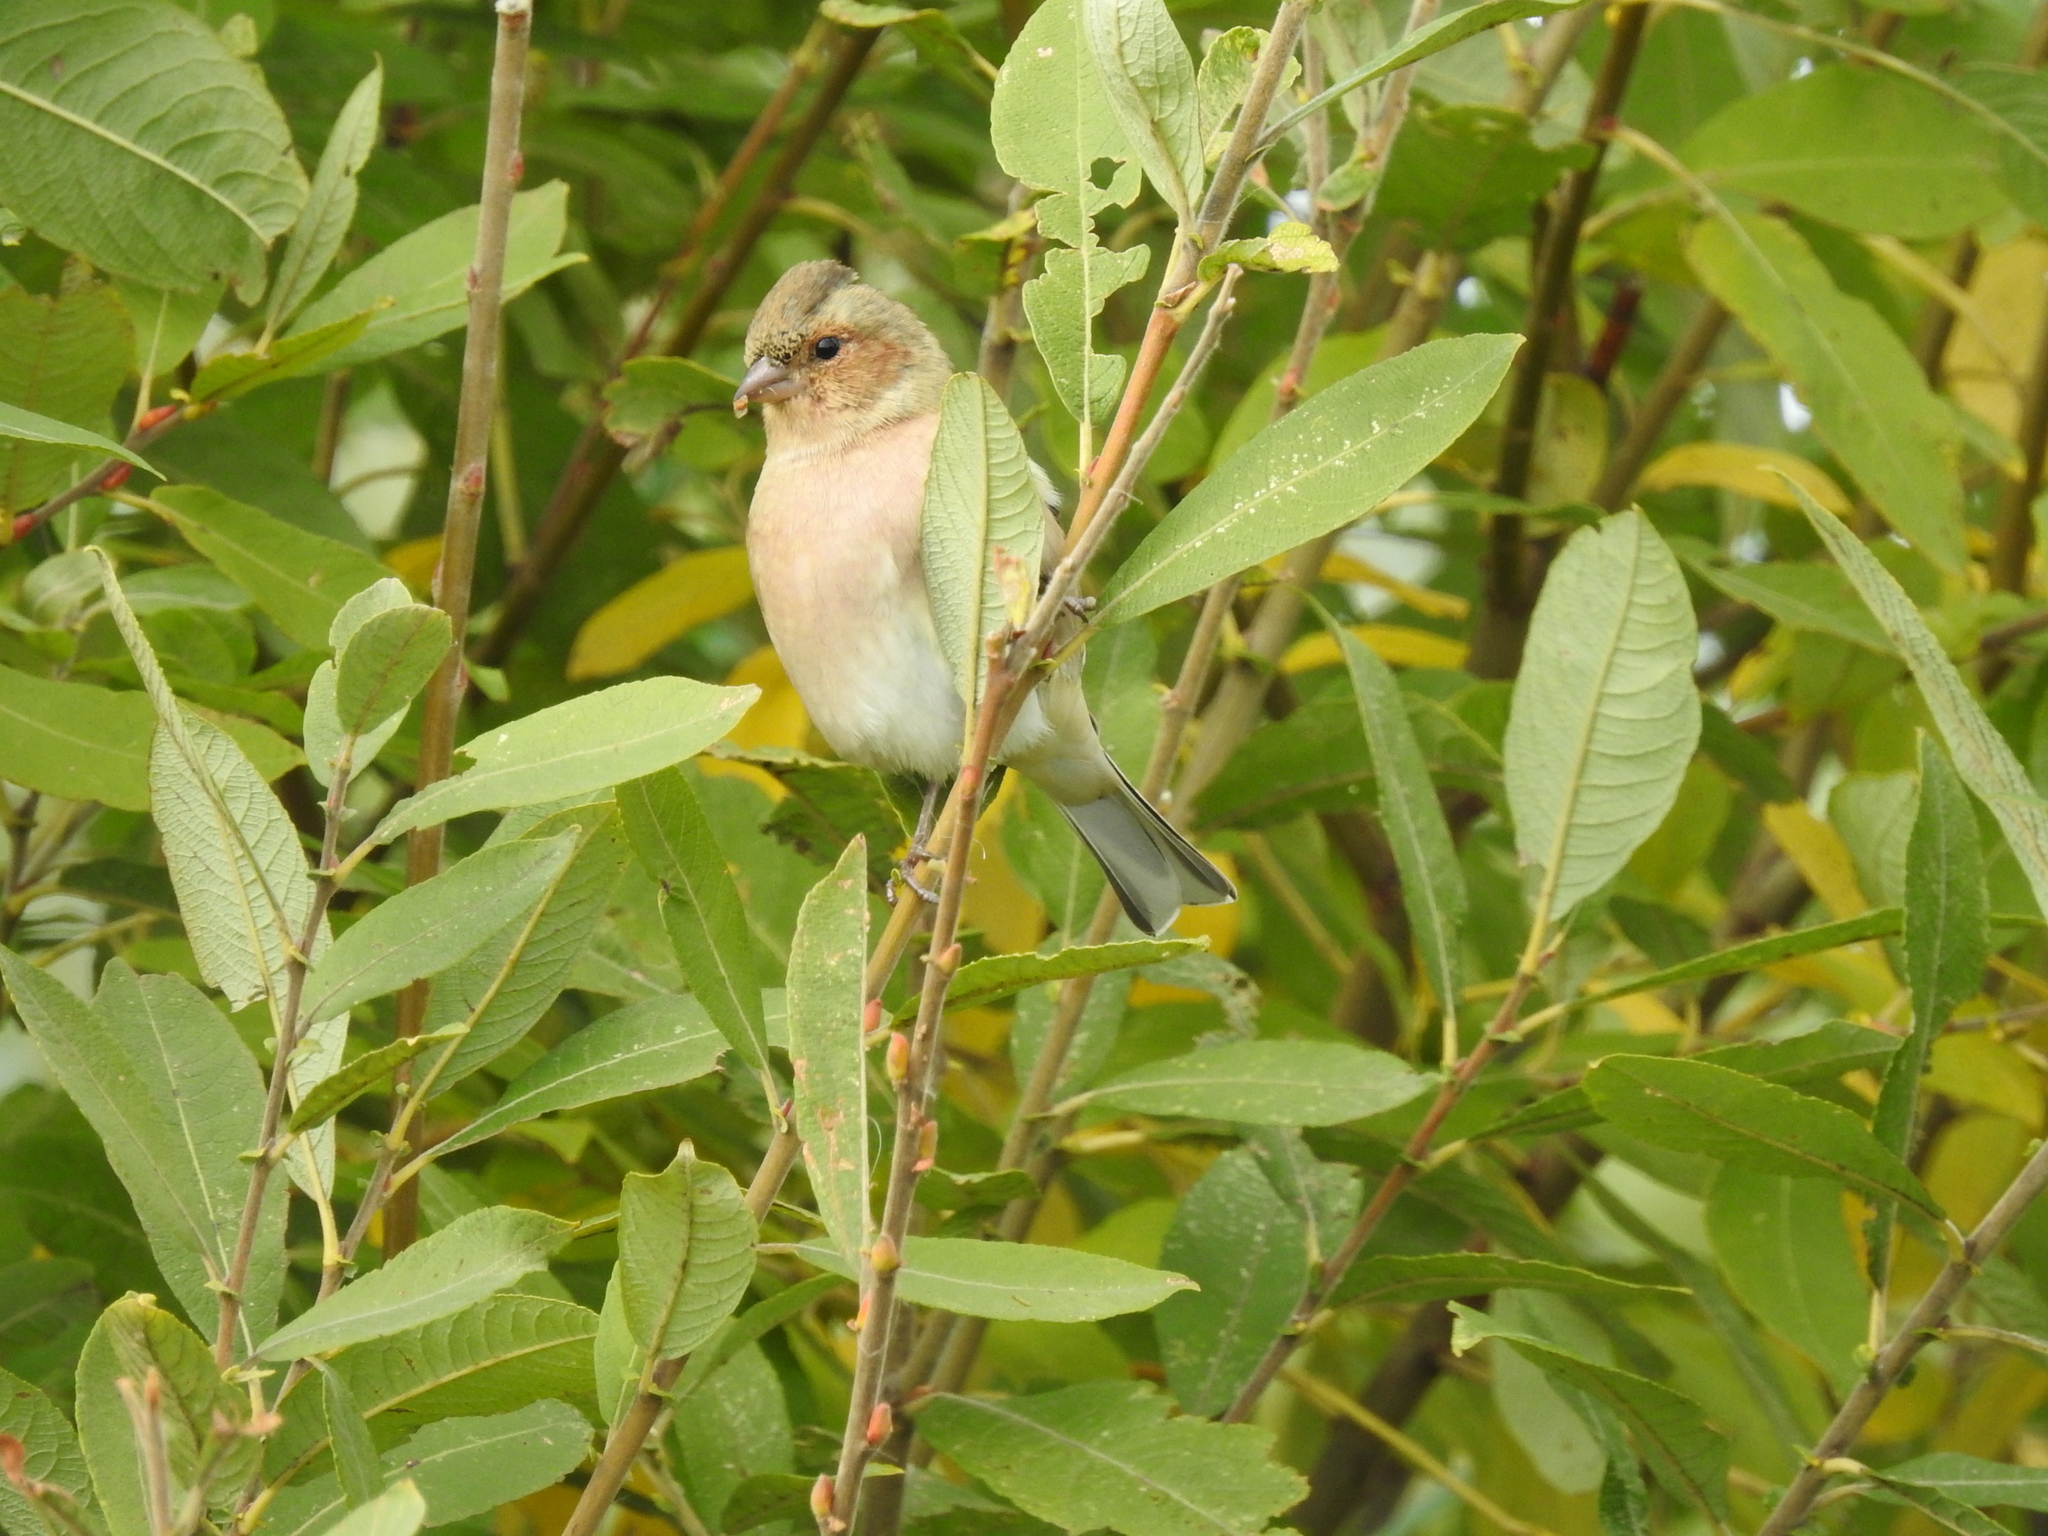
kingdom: Animalia
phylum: Chordata
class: Aves
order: Passeriformes
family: Fringillidae
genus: Fringilla
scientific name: Fringilla coelebs
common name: Common chaffinch
